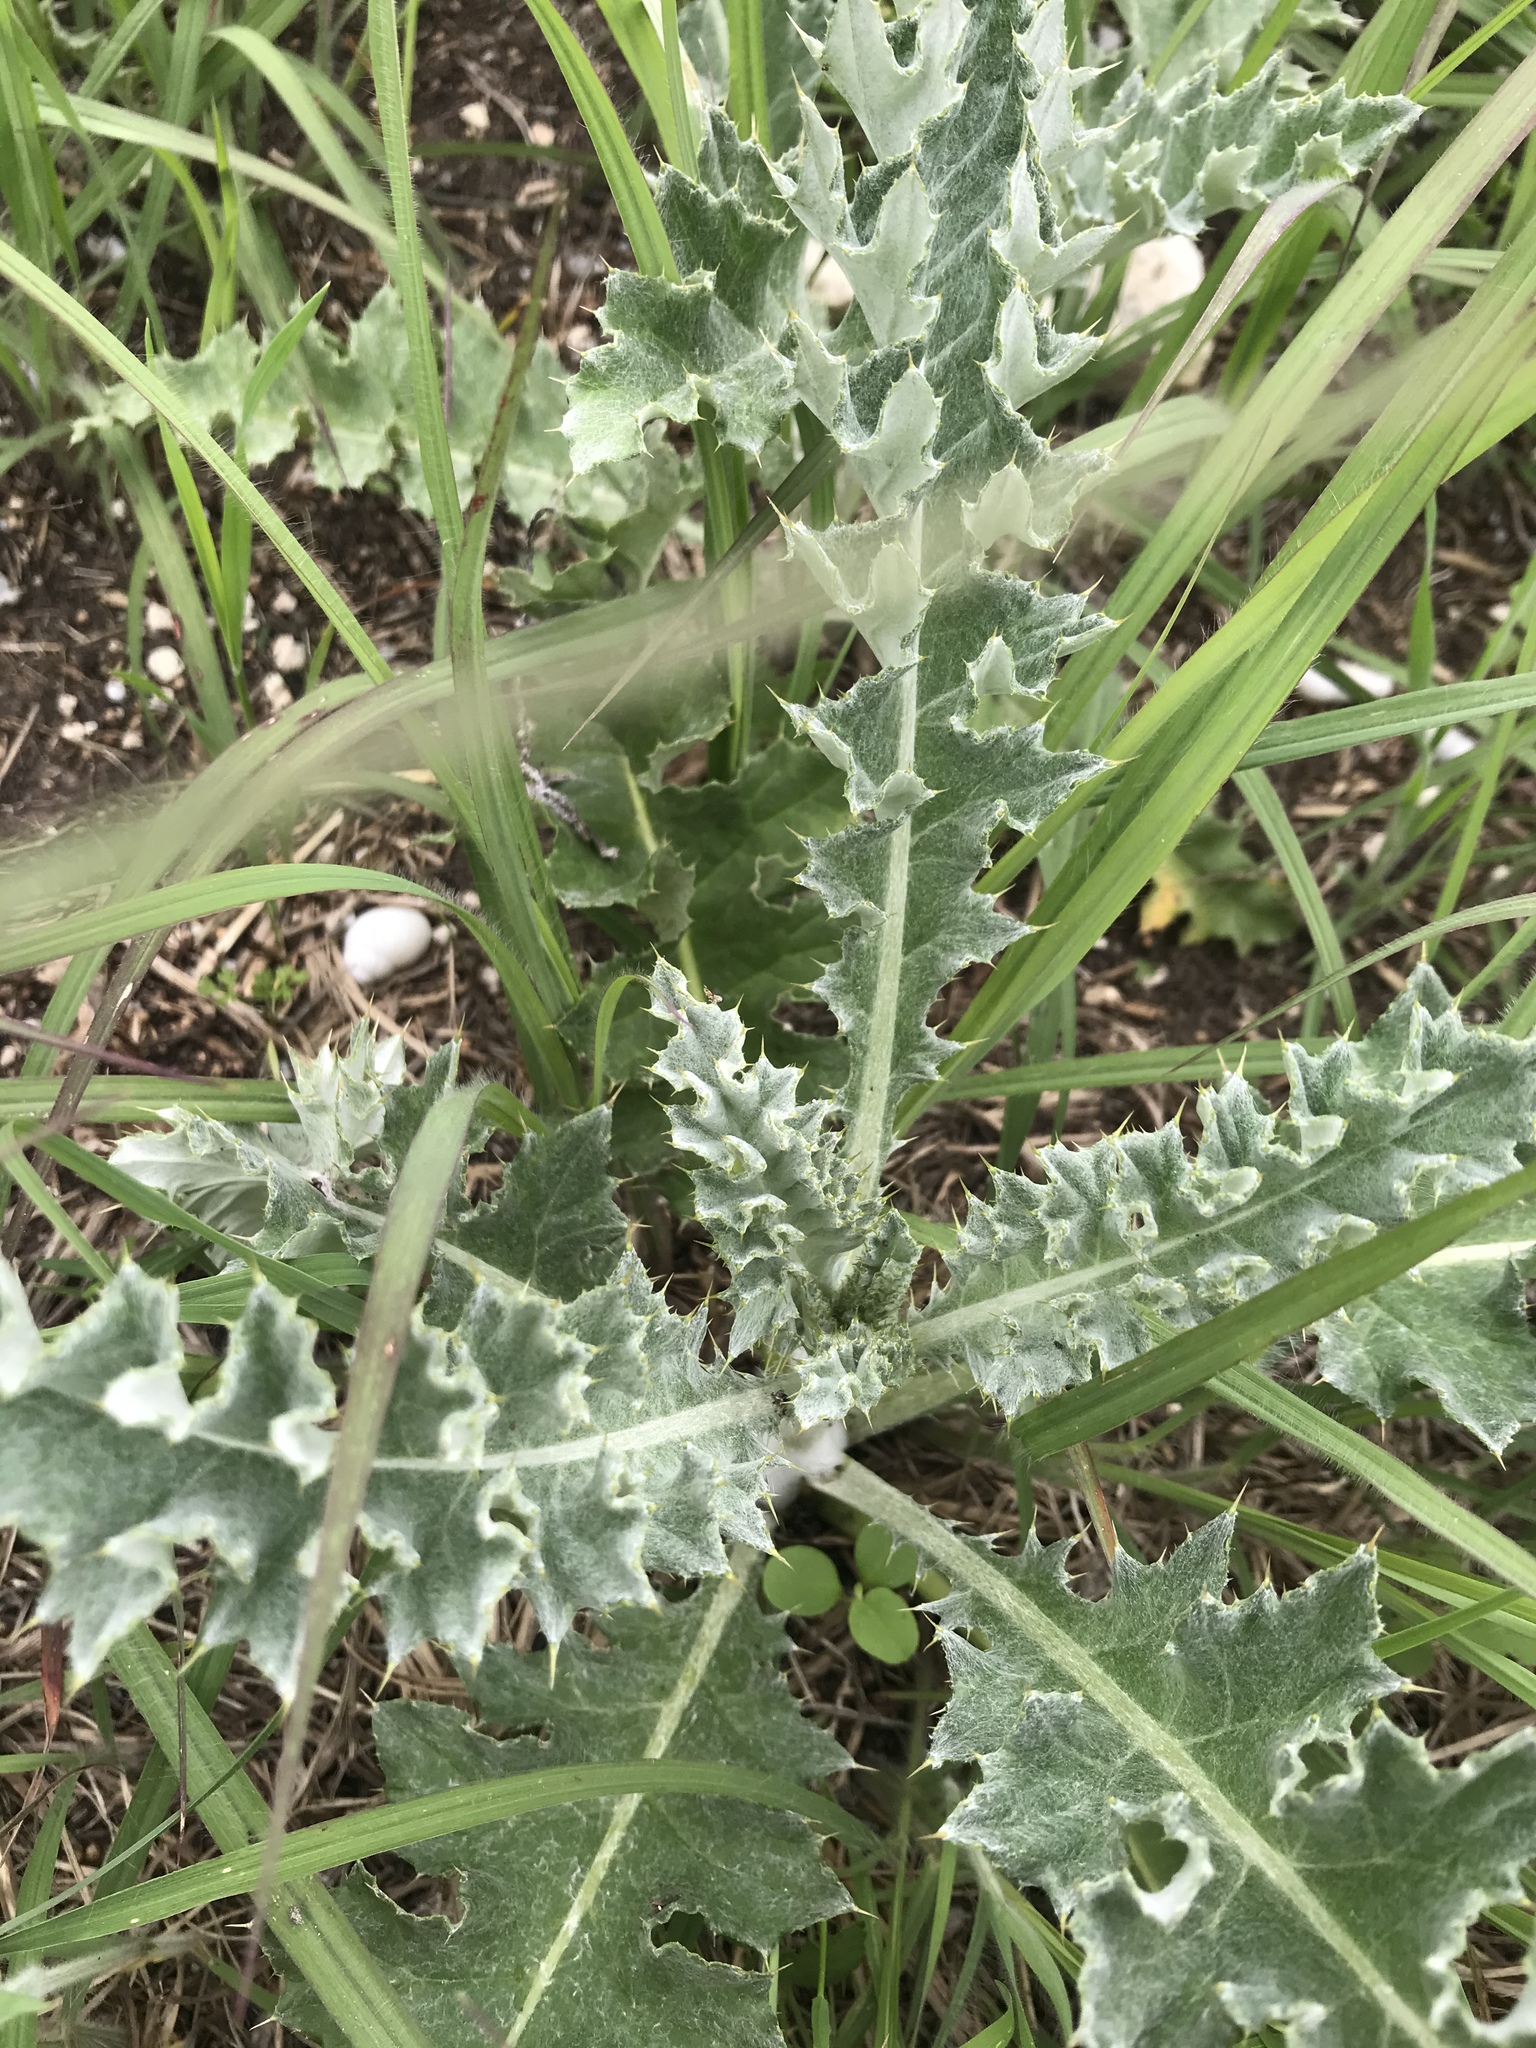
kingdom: Plantae
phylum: Tracheophyta
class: Magnoliopsida
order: Asterales
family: Asteraceae
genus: Cirsium
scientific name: Cirsium undulatum
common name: Pasture thistle
